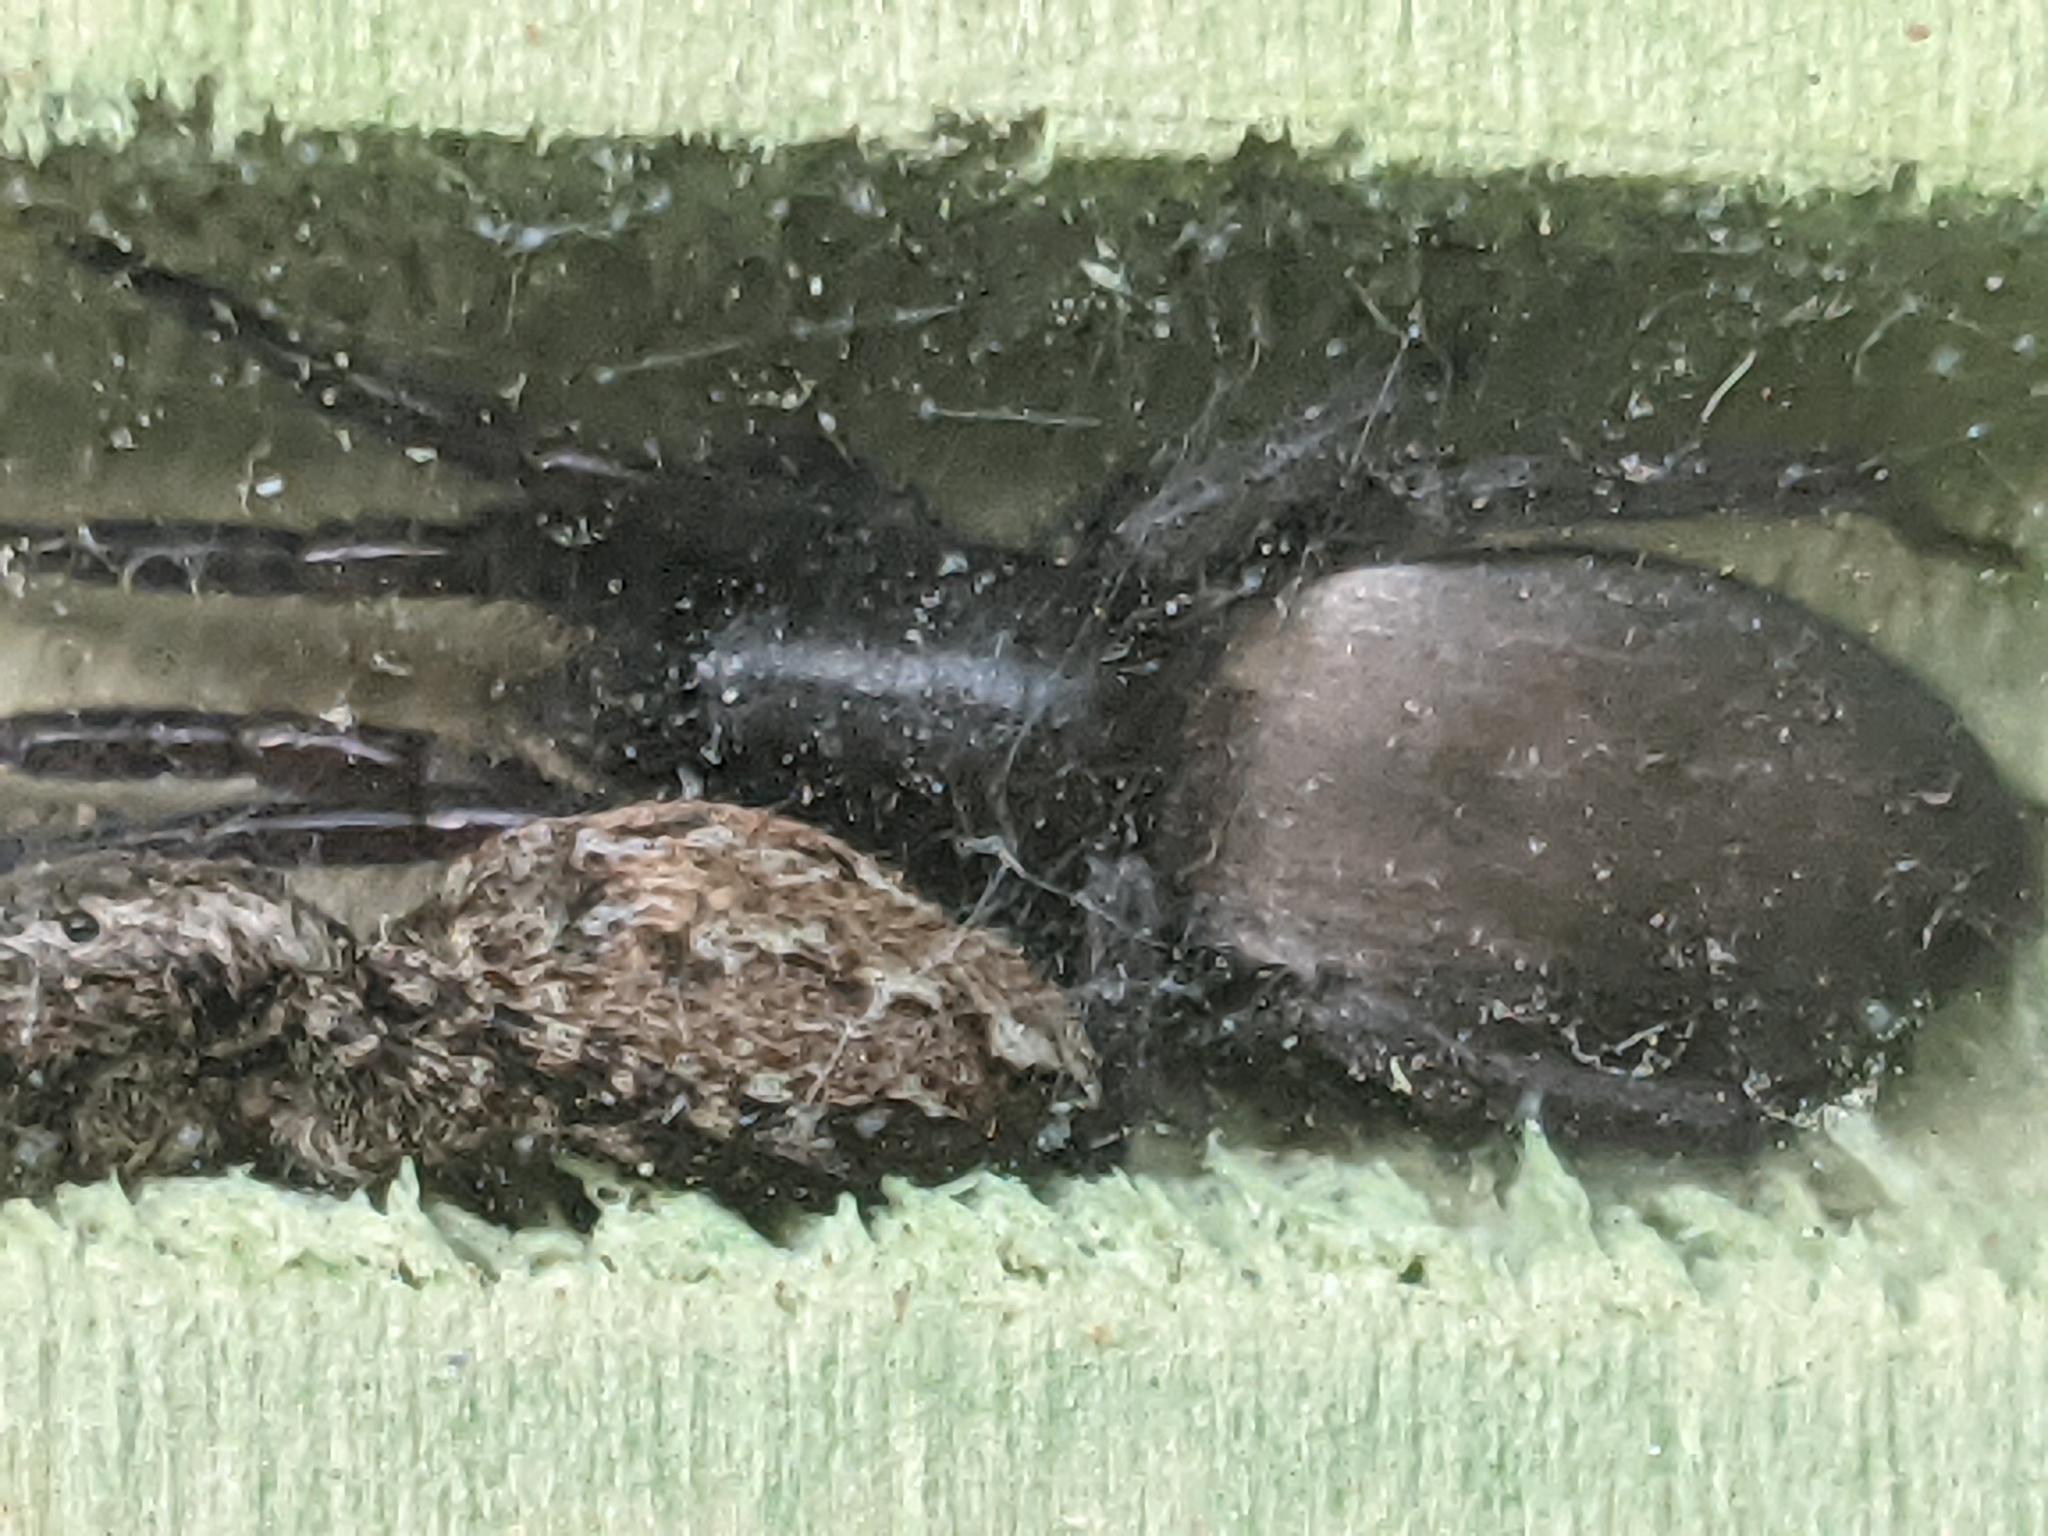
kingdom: Animalia
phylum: Arthropoda
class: Arachnida
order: Araneae
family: Salticidae
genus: Marpissa
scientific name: Marpissa muscosa
